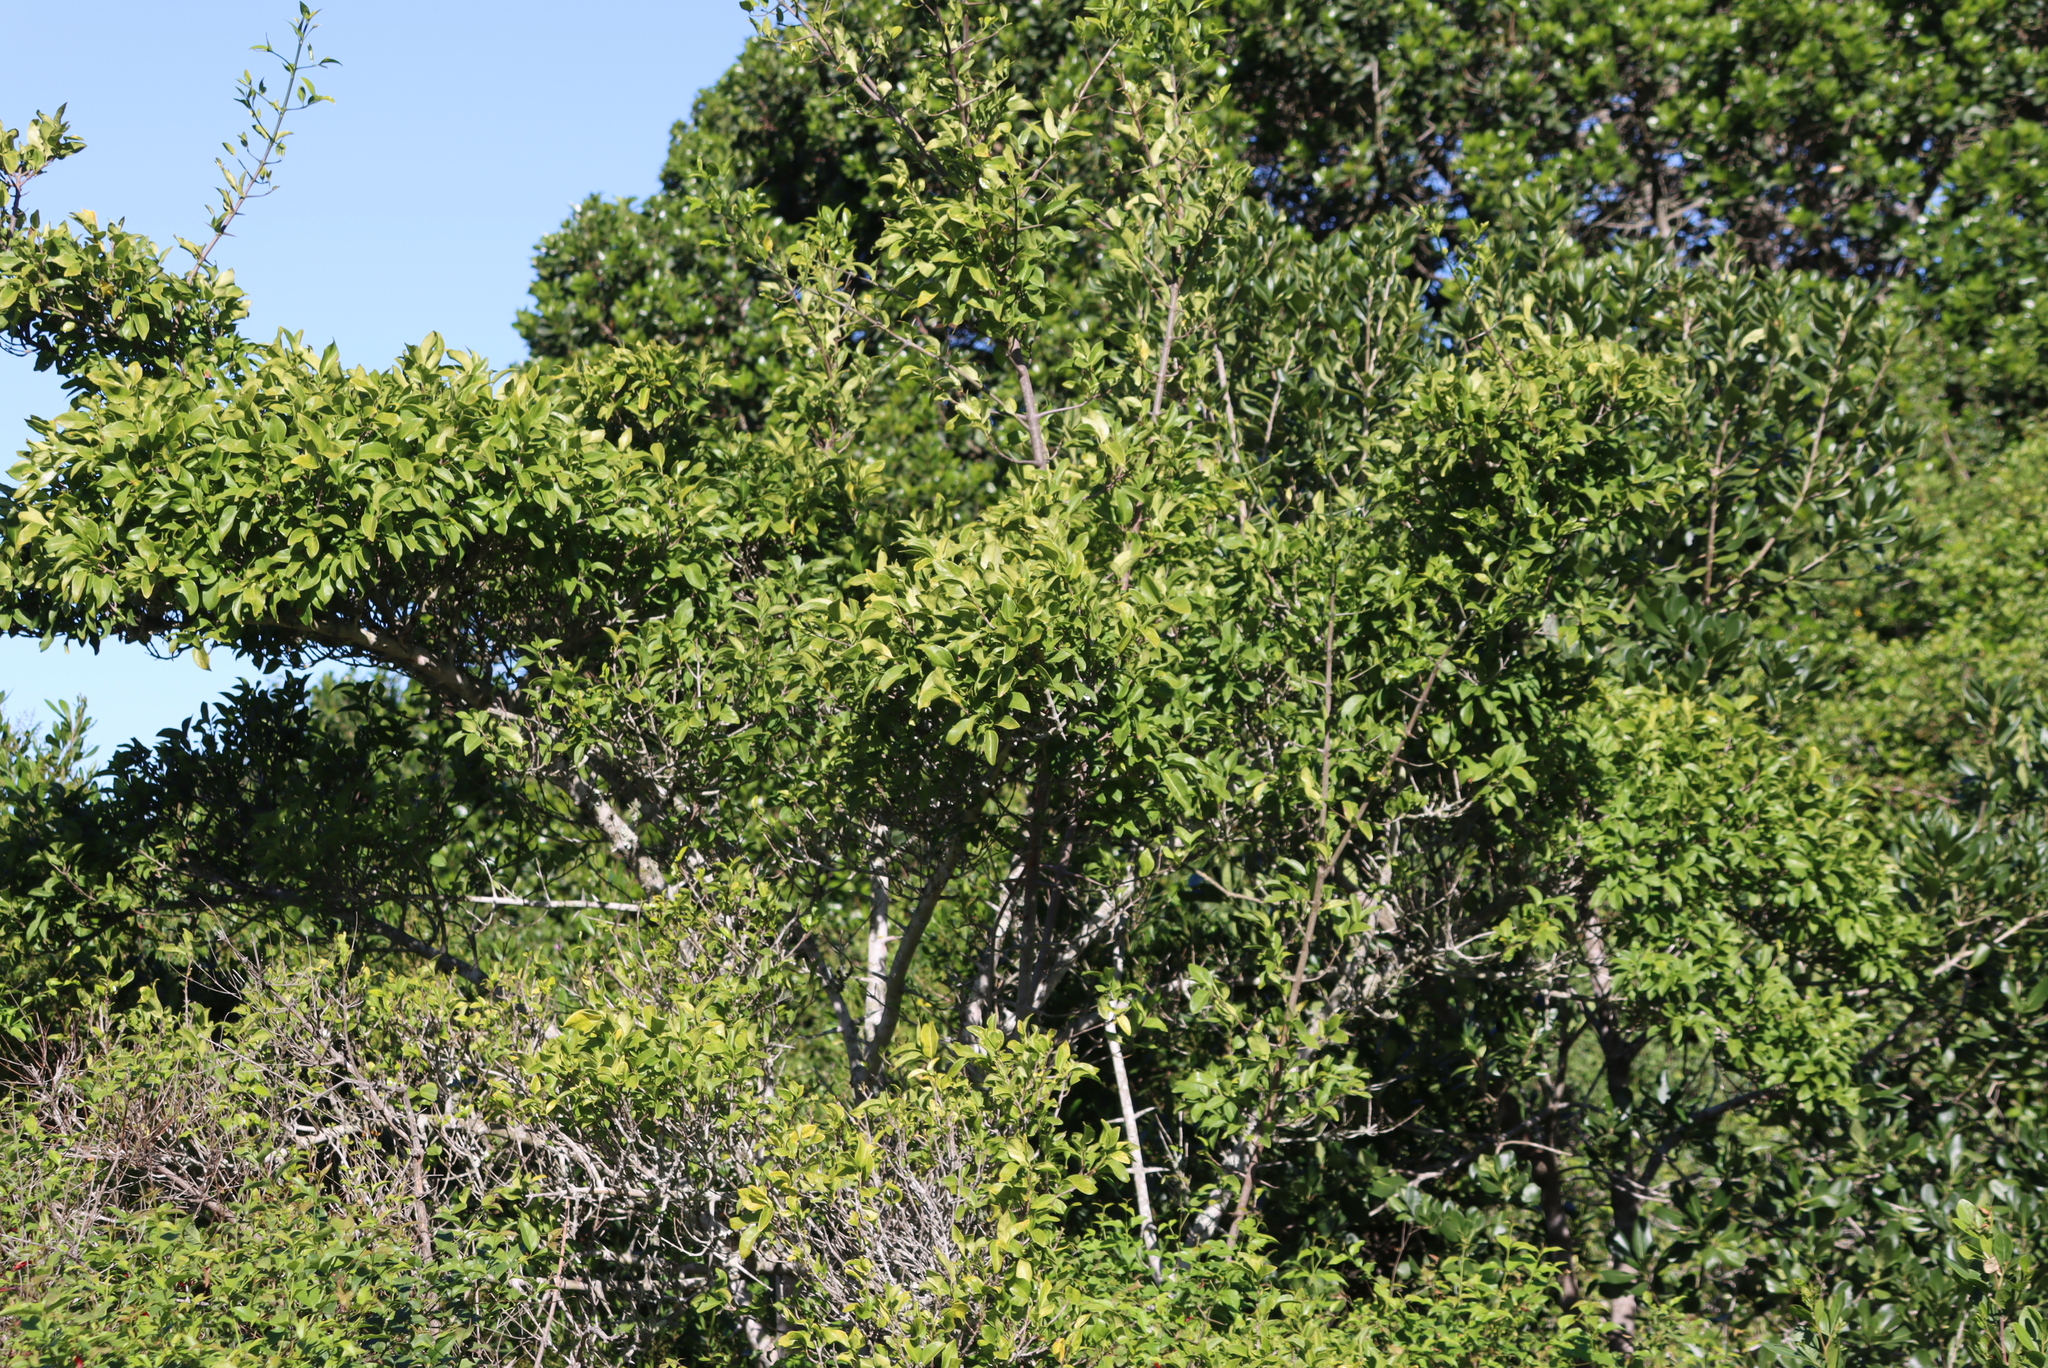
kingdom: Plantae
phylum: Tracheophyta
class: Magnoliopsida
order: Gentianales
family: Rubiaceae
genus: Canthium
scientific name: Canthium inerme
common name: Unarmed turkey-berry
